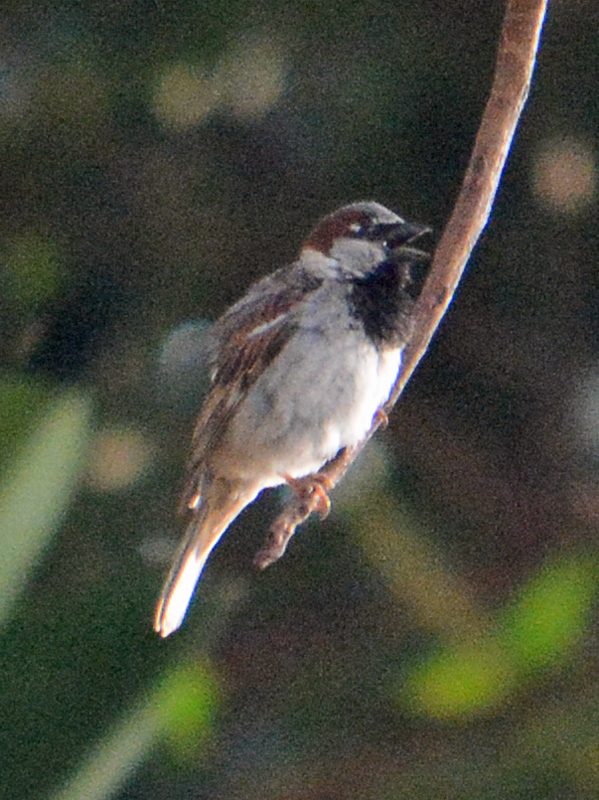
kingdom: Animalia
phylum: Chordata
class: Aves
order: Passeriformes
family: Passeridae
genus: Passer
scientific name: Passer domesticus
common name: House sparrow
